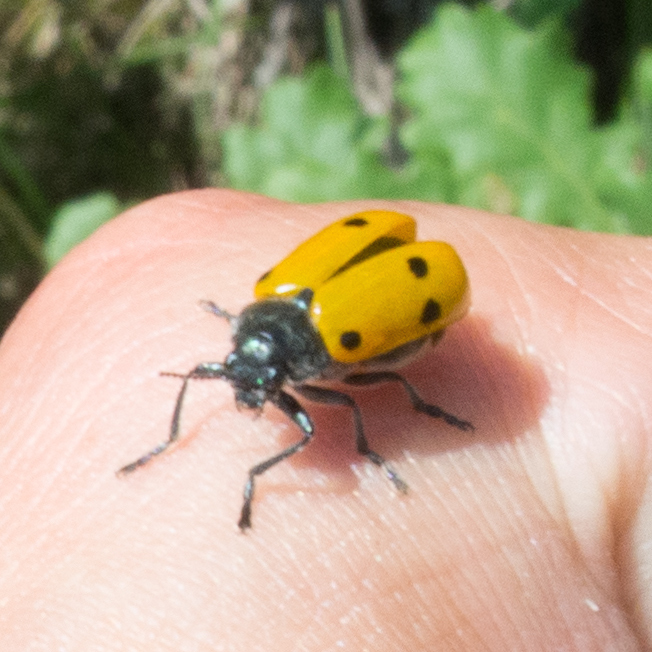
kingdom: Animalia
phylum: Arthropoda
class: Insecta
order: Coleoptera
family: Chrysomelidae
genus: Lachnaia
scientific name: Lachnaia sexpunctata
